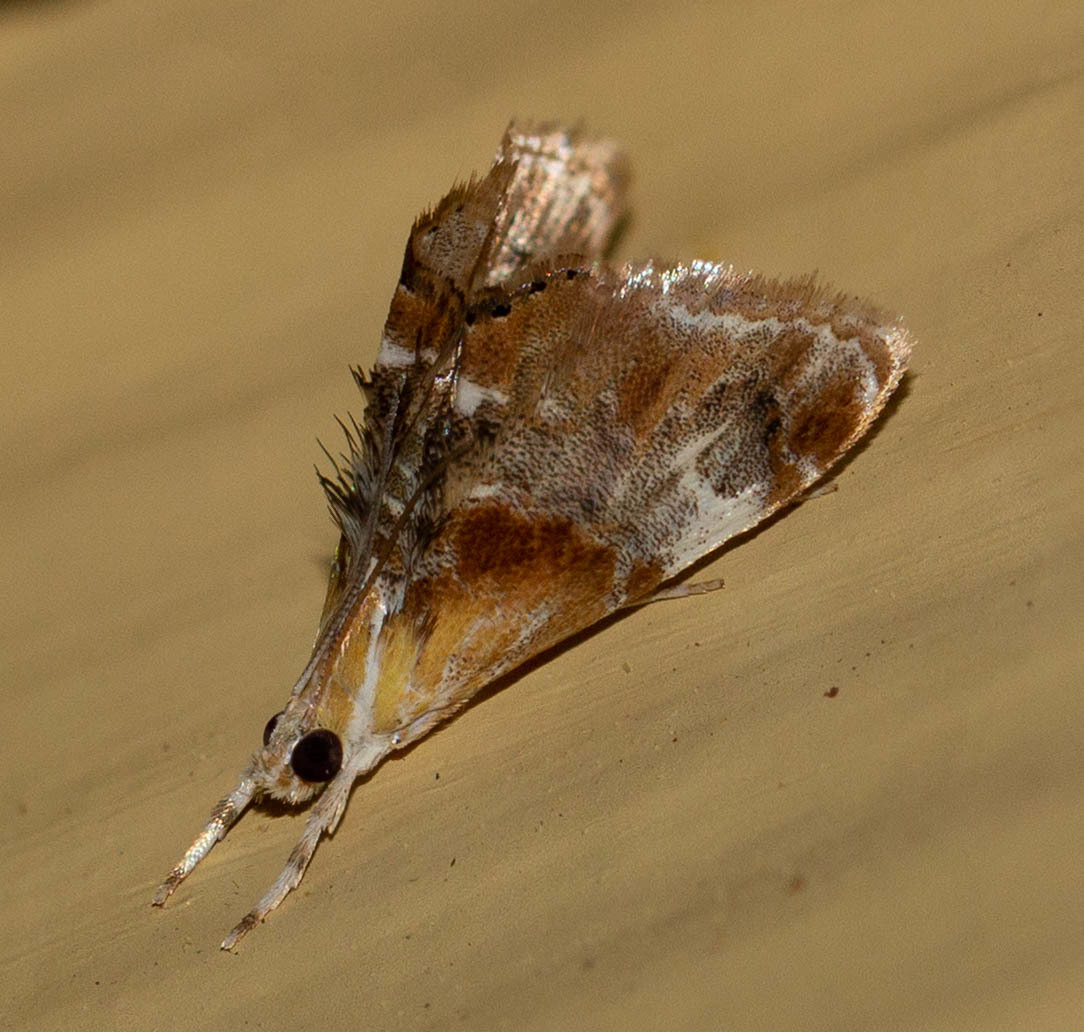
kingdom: Animalia
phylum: Arthropoda
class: Insecta
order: Lepidoptera
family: Crambidae
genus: Dicymolomia
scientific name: Dicymolomia julianalis
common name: Julia's dicymolomia moth
